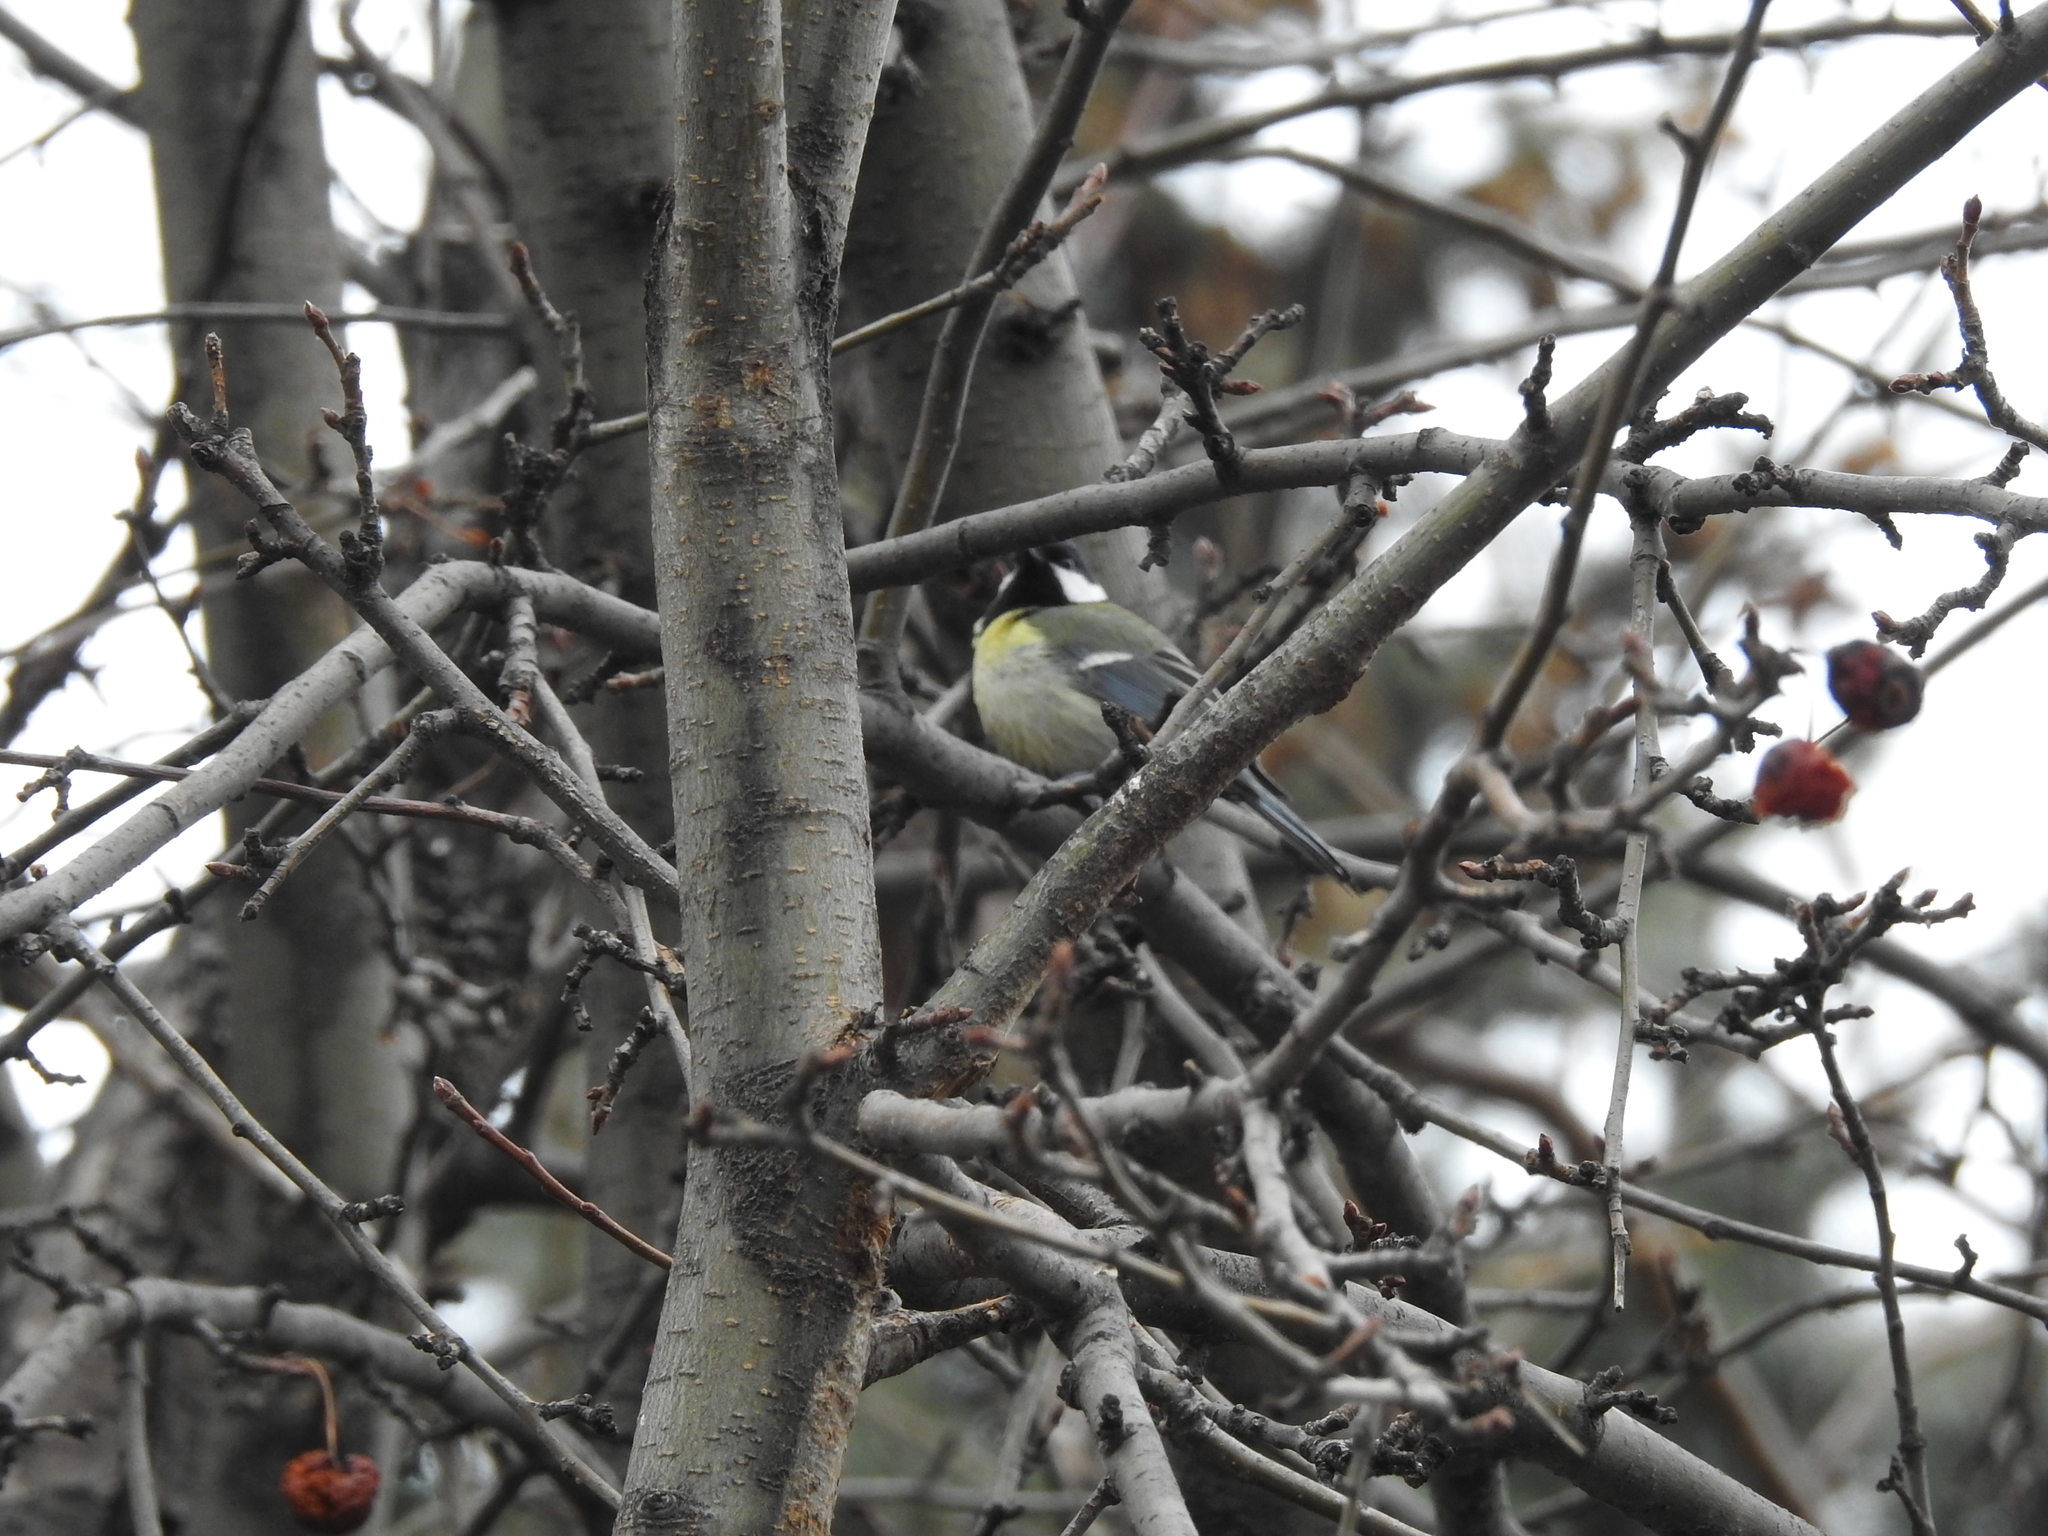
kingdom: Animalia
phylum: Chordata
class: Aves
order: Passeriformes
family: Paridae
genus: Parus
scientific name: Parus major
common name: Great tit
